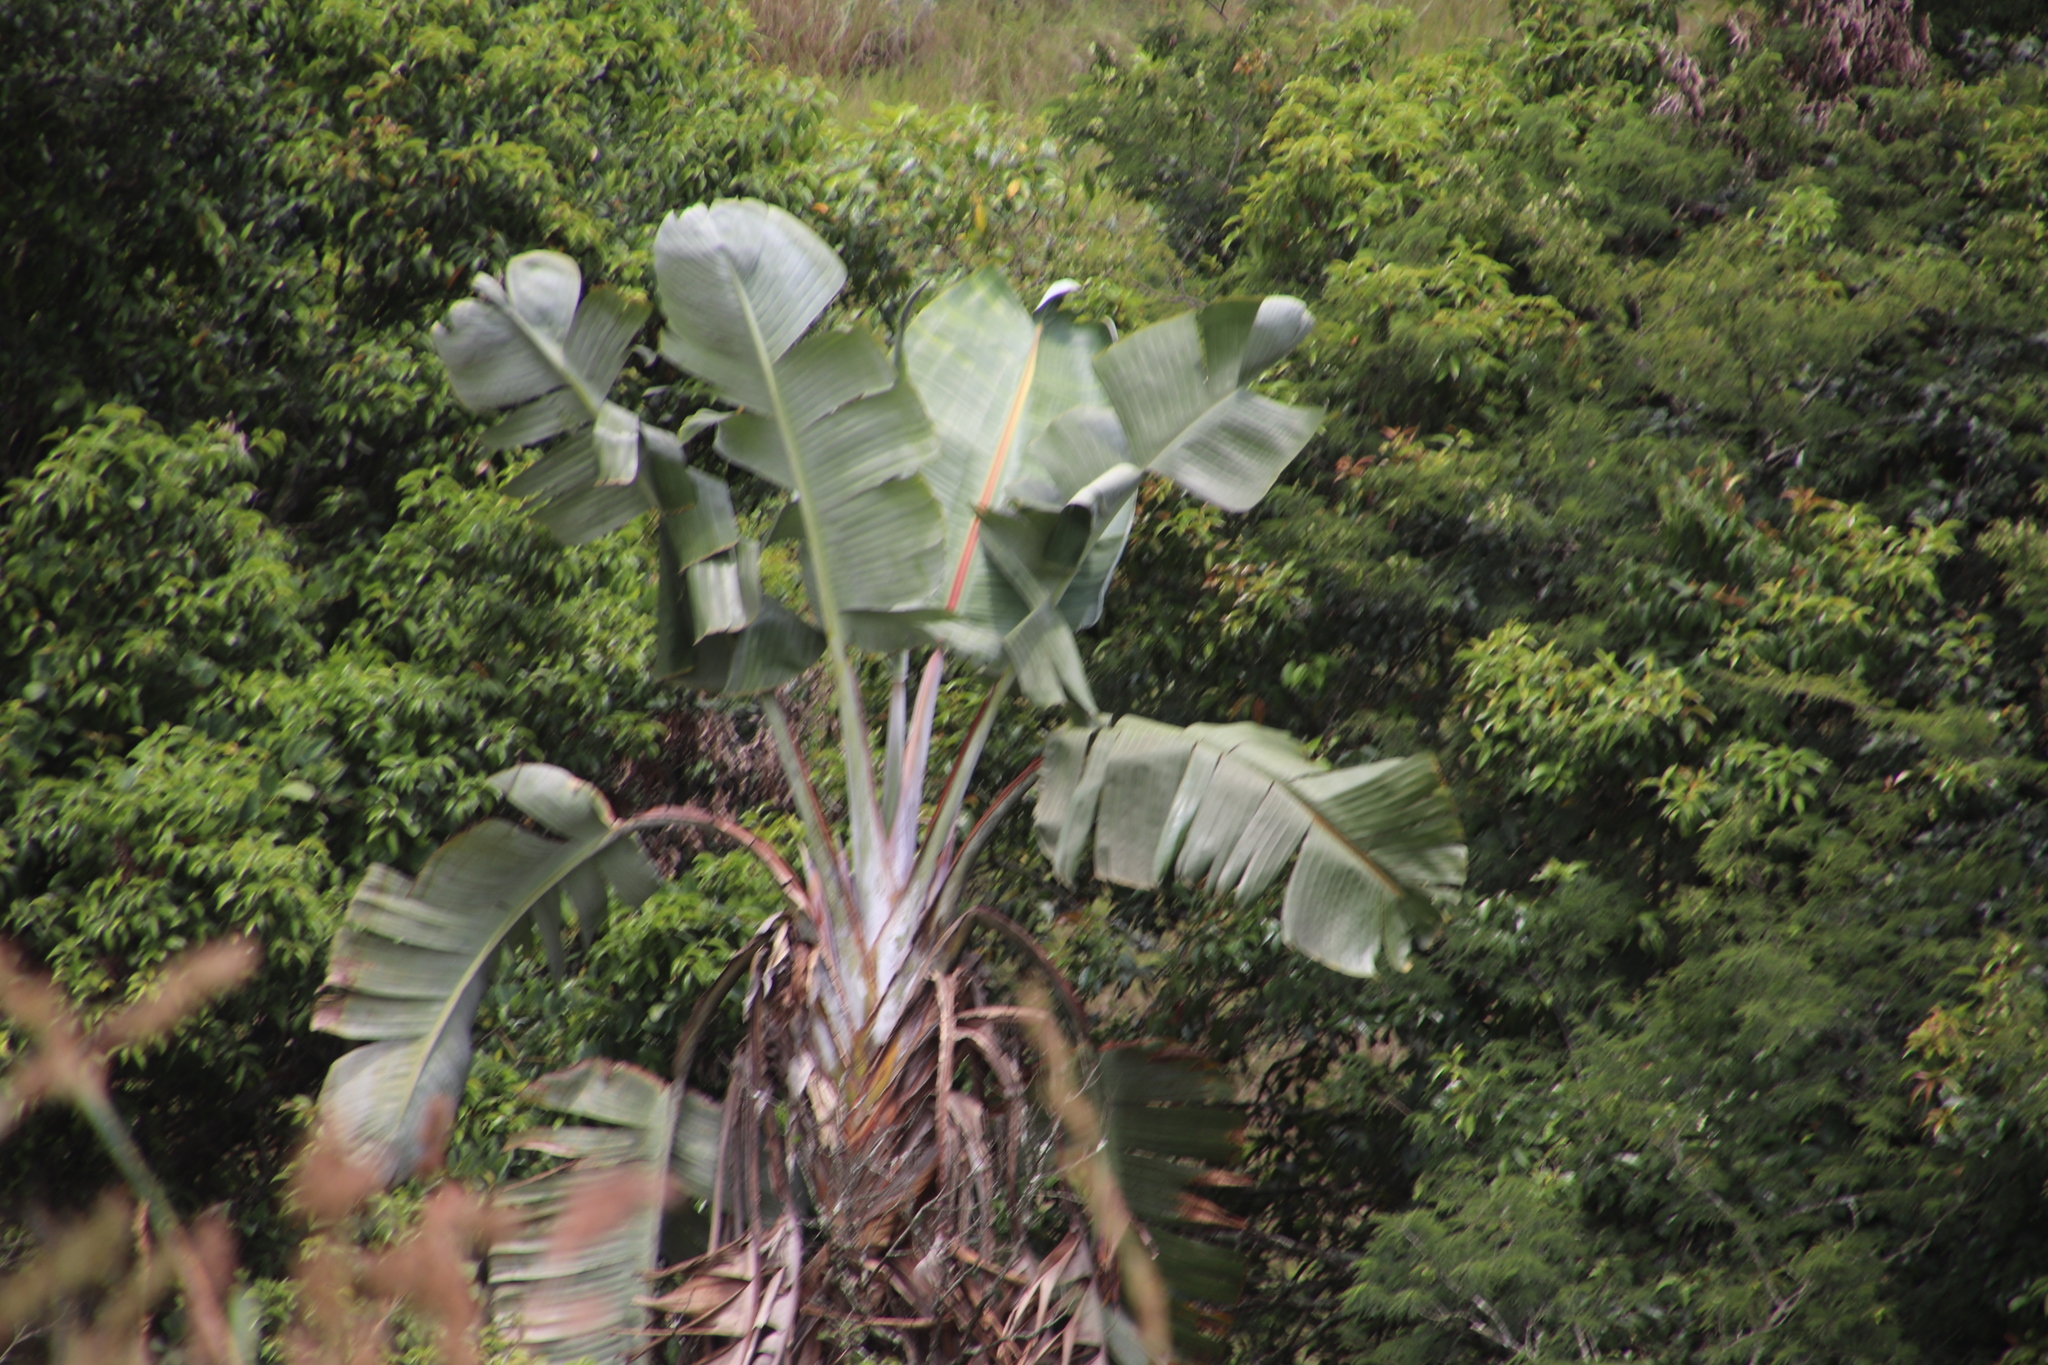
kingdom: Plantae
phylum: Tracheophyta
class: Liliopsida
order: Zingiberales
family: Strelitziaceae
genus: Strelitzia
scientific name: Strelitzia caudata
